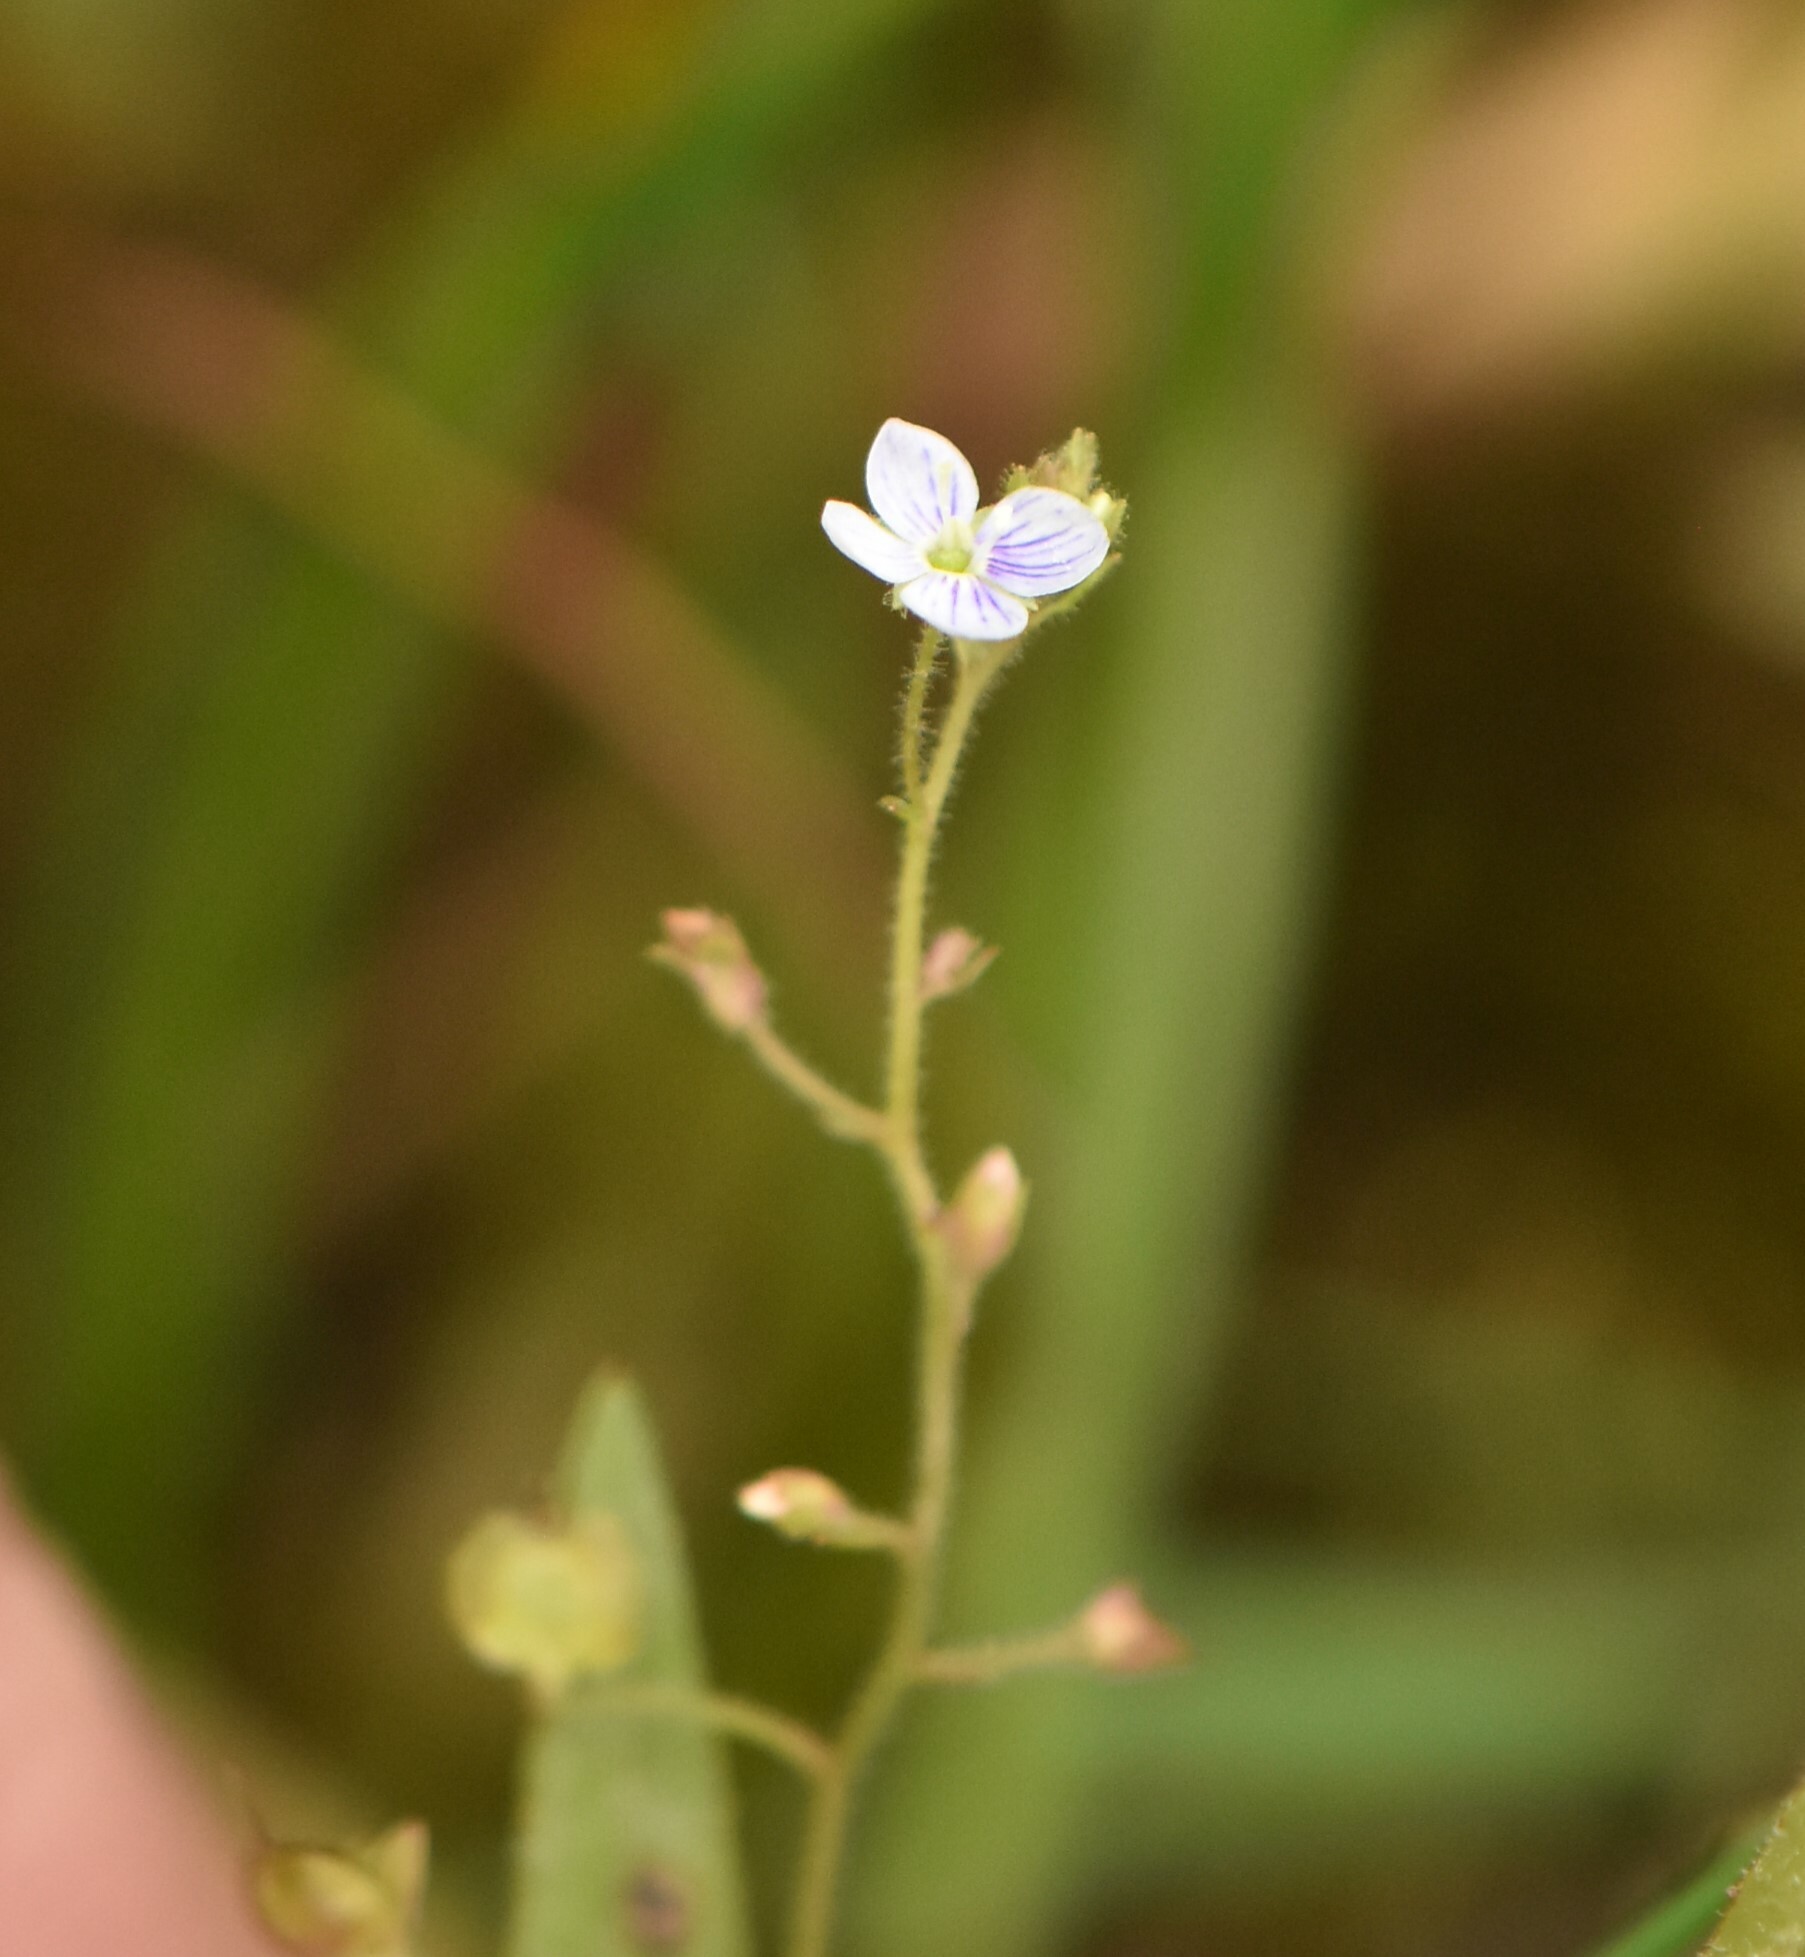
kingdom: Plantae
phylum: Tracheophyta
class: Magnoliopsida
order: Lamiales
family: Plantaginaceae
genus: Veronica
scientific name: Veronica scutellata
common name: Marsh speedwell
